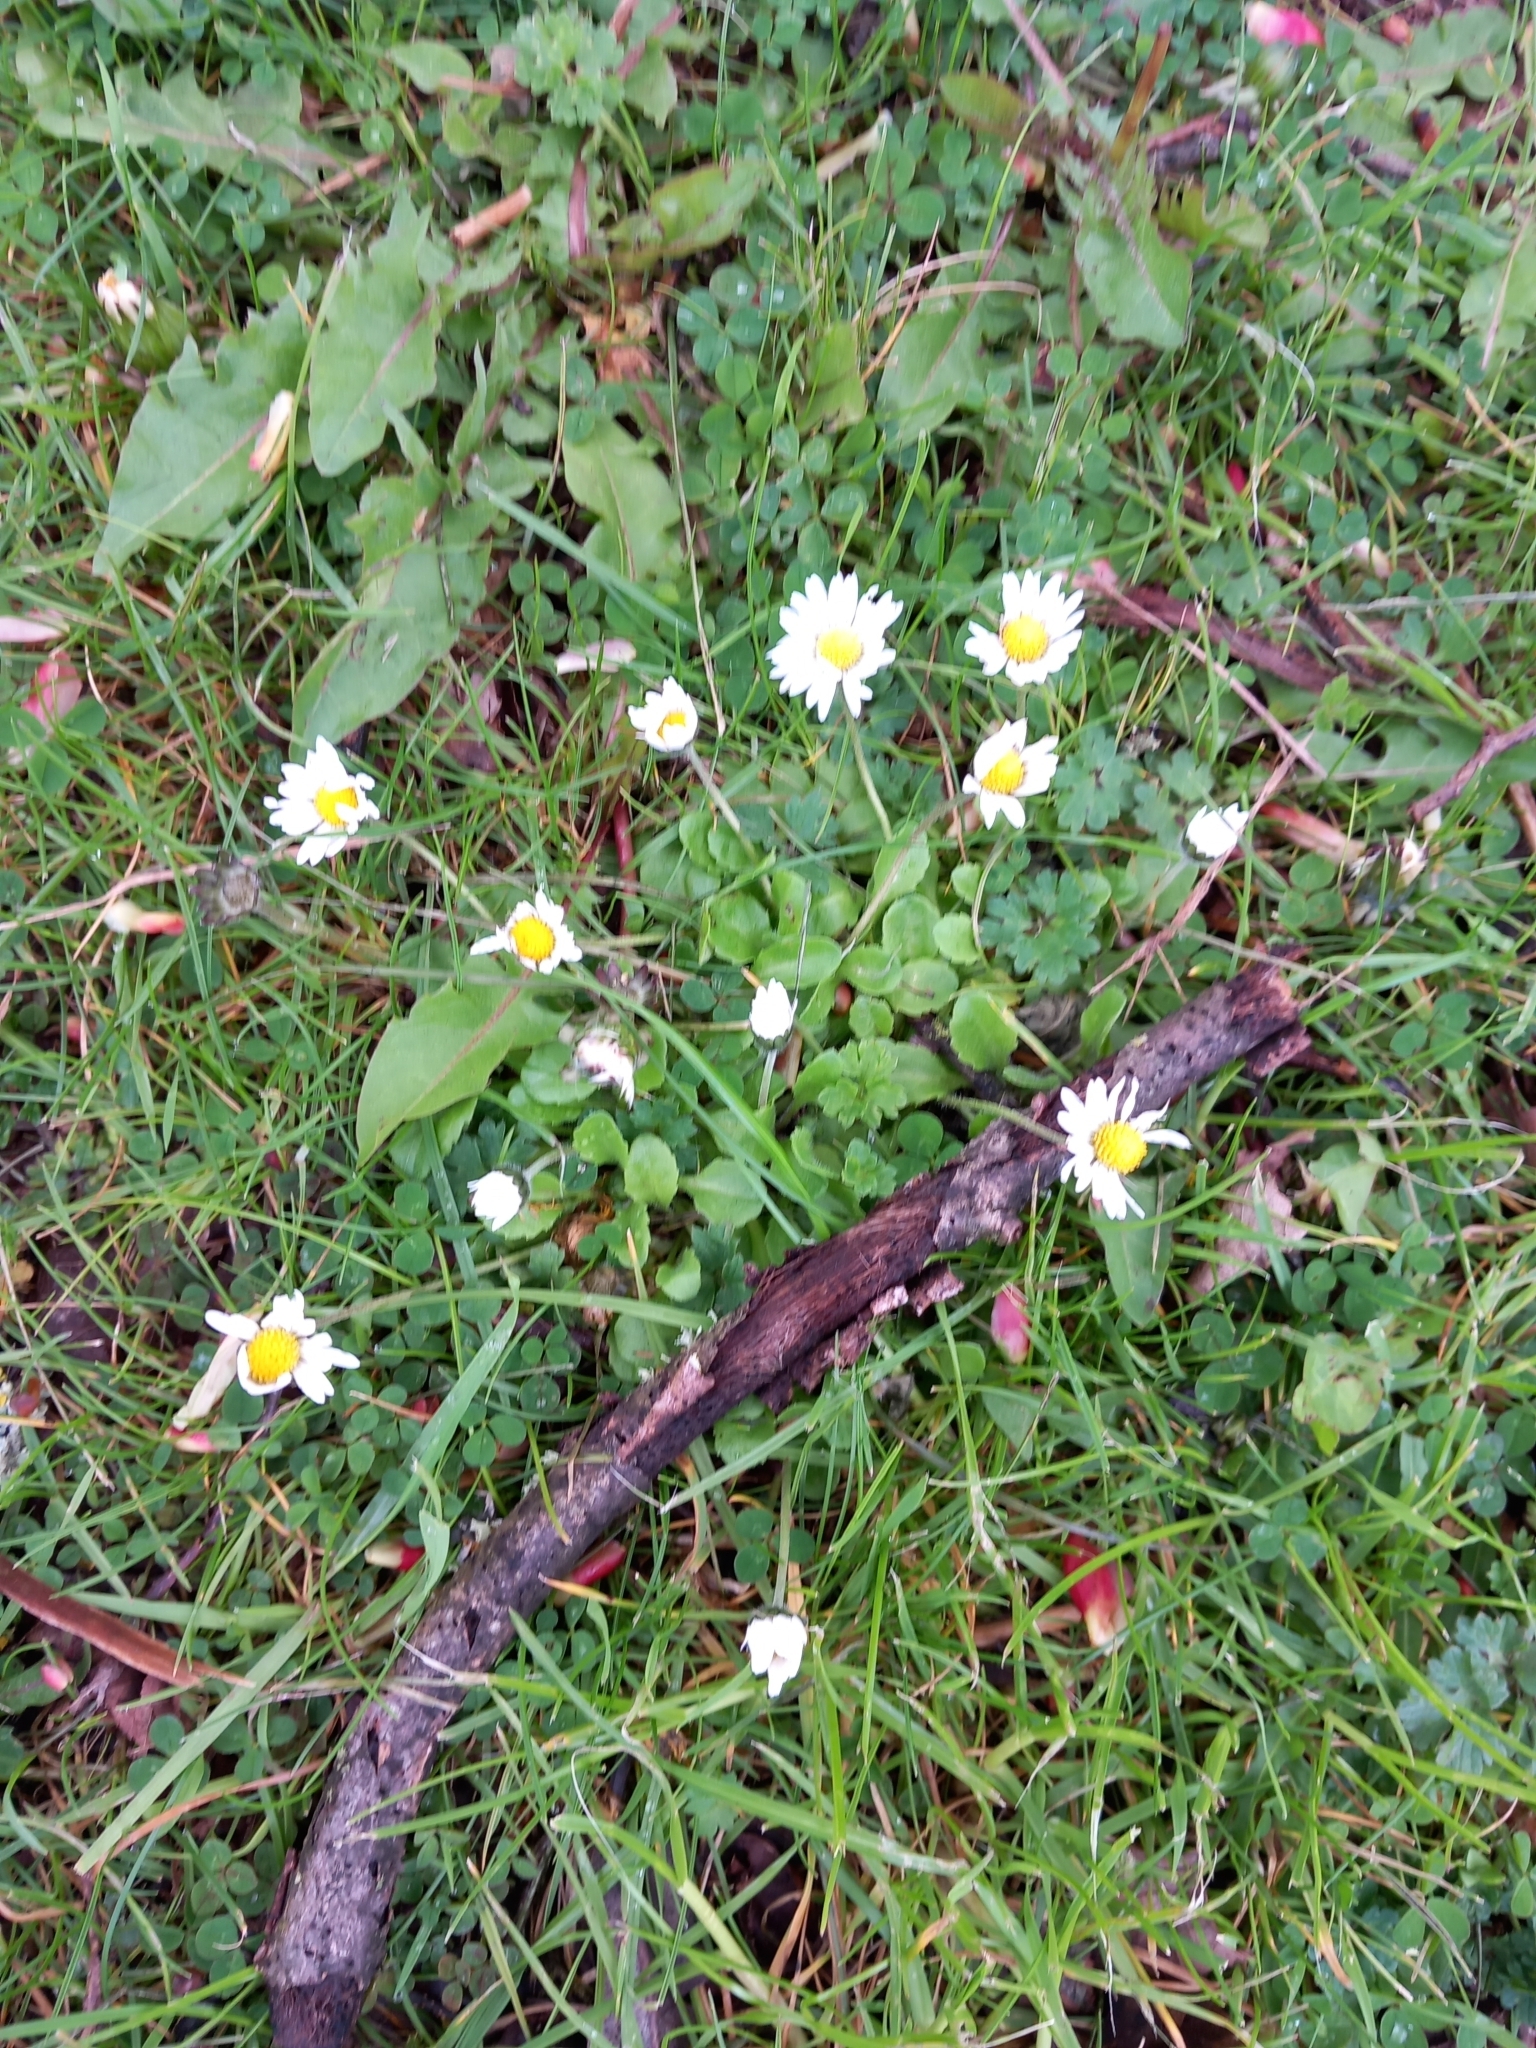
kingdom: Plantae
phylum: Tracheophyta
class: Magnoliopsida
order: Asterales
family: Asteraceae
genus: Bellis
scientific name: Bellis perennis
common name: Lawndaisy
